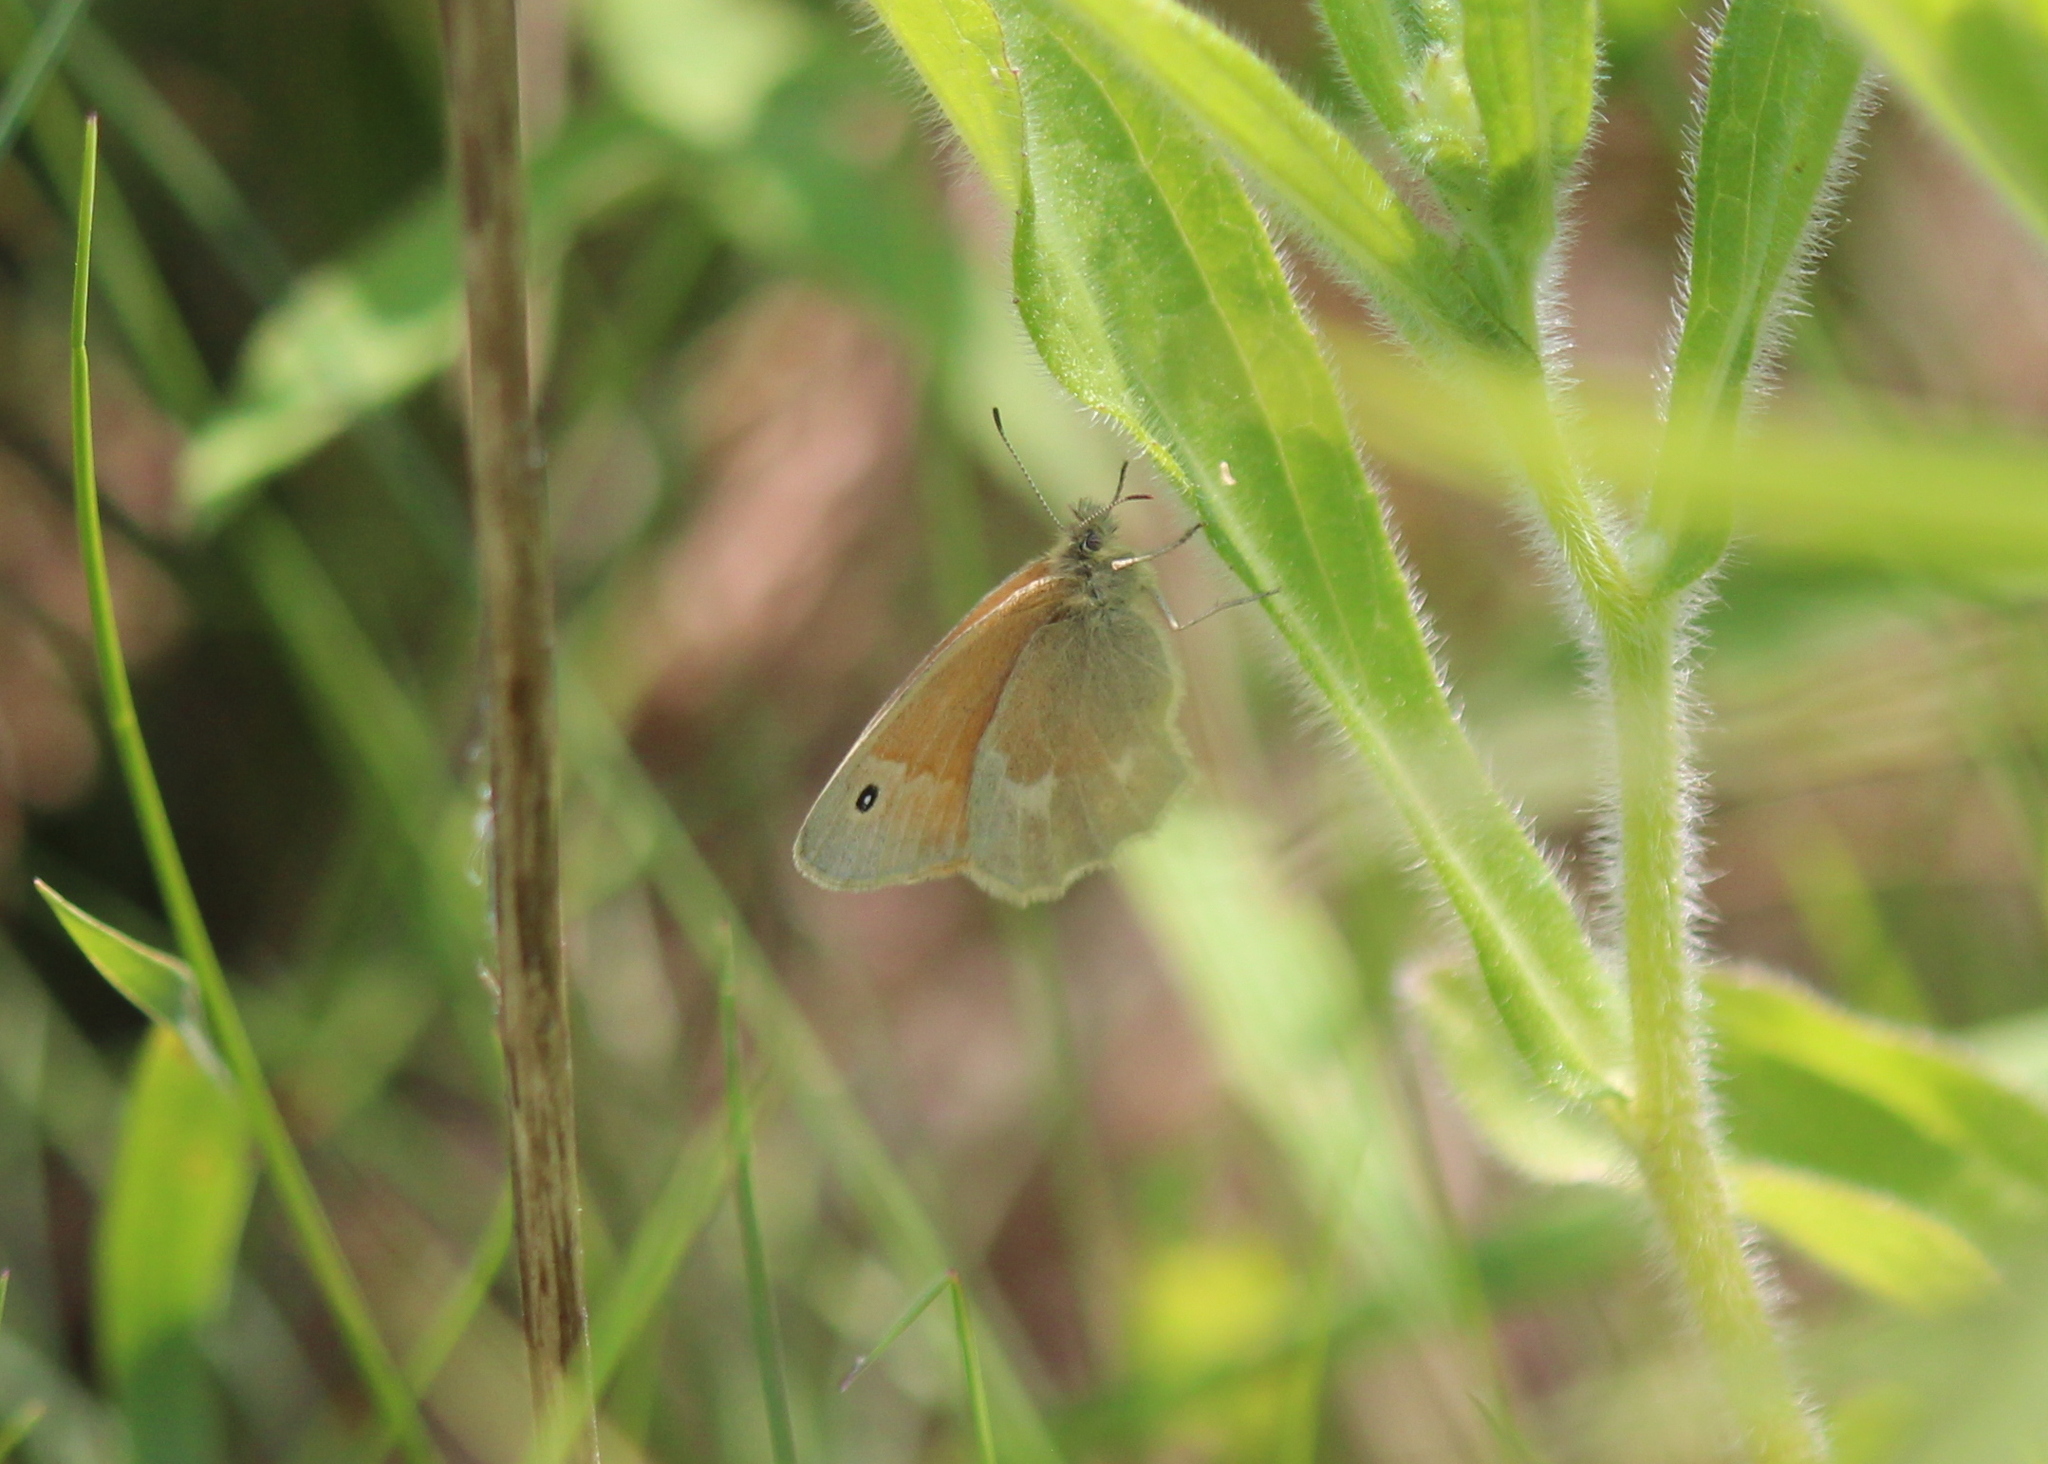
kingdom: Animalia
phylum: Arthropoda
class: Insecta
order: Lepidoptera
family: Nymphalidae
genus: Coenonympha
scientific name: Coenonympha california
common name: Common ringlet
